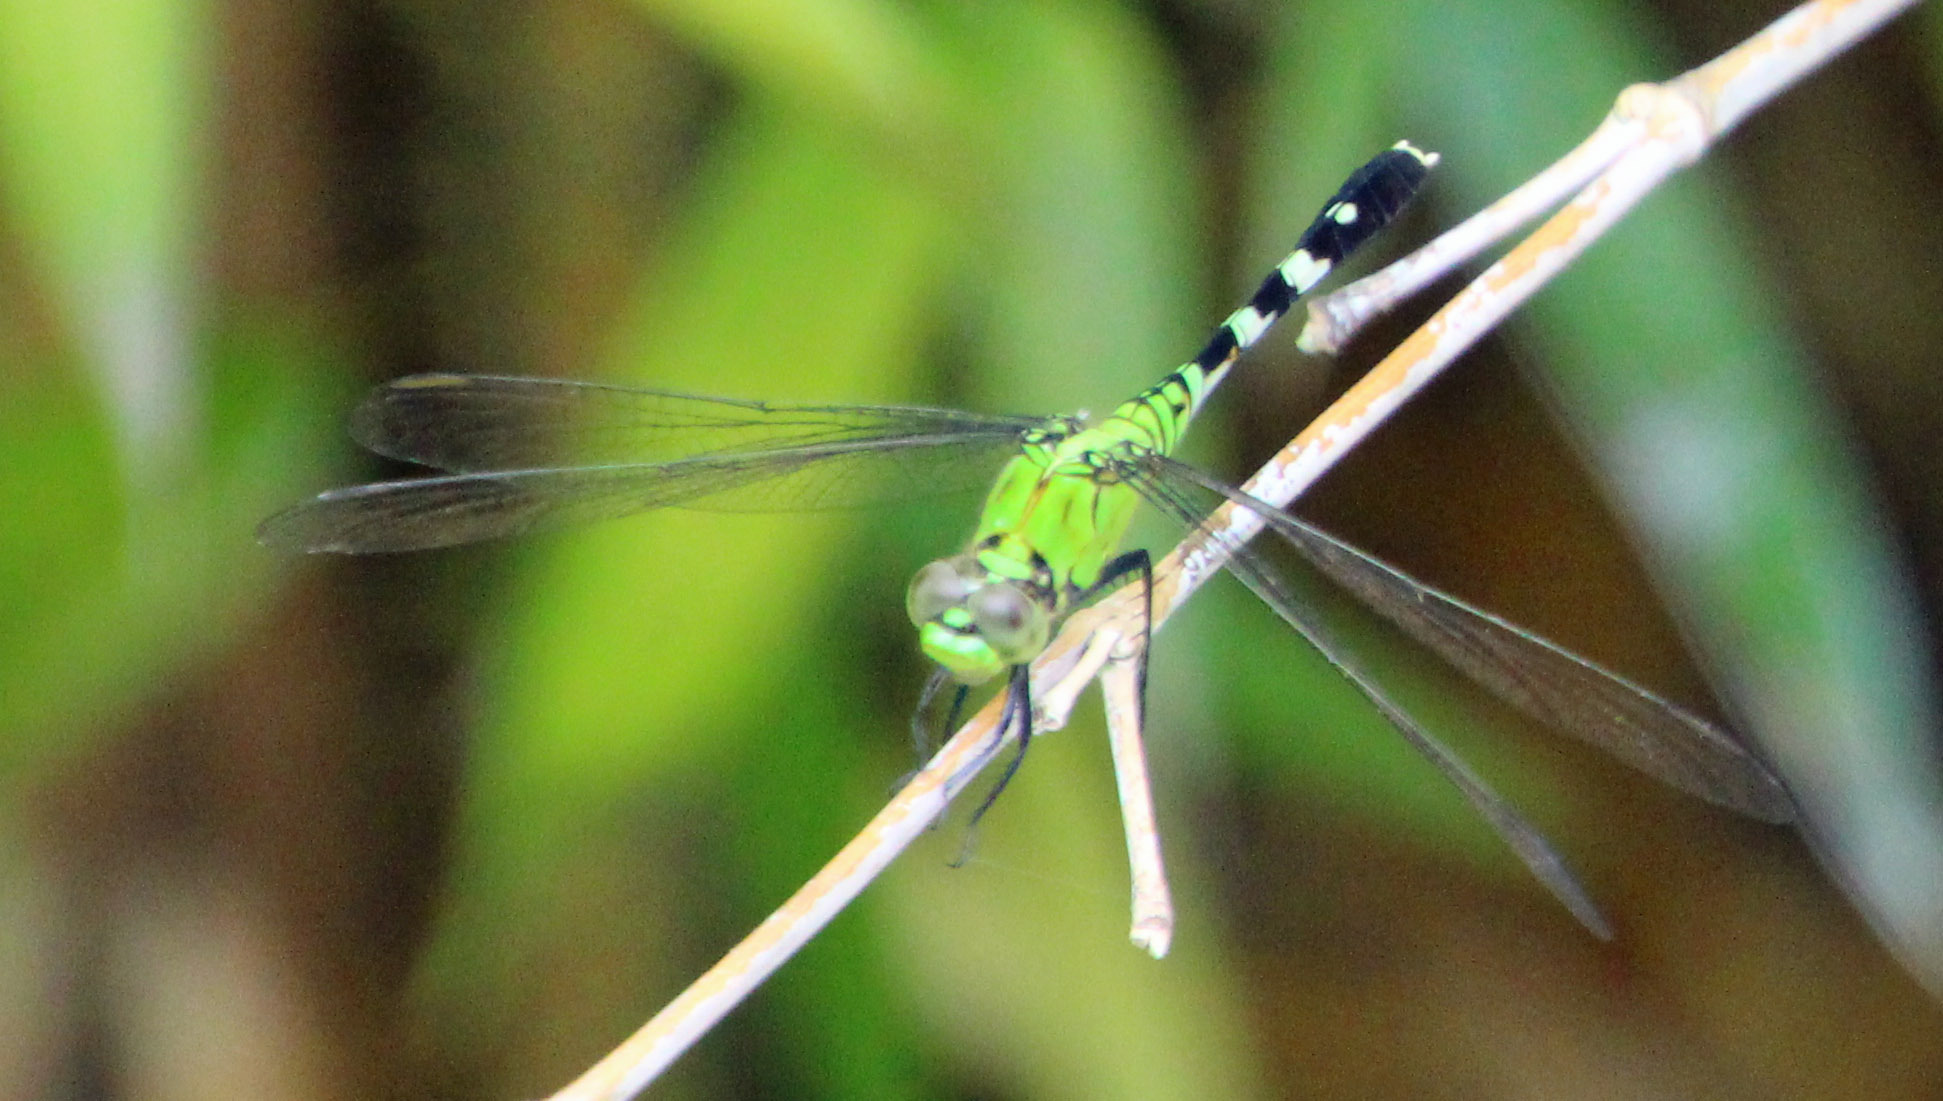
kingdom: Animalia
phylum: Arthropoda
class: Insecta
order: Odonata
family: Libellulidae
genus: Erythemis
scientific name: Erythemis simplicicollis
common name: Eastern pondhawk
